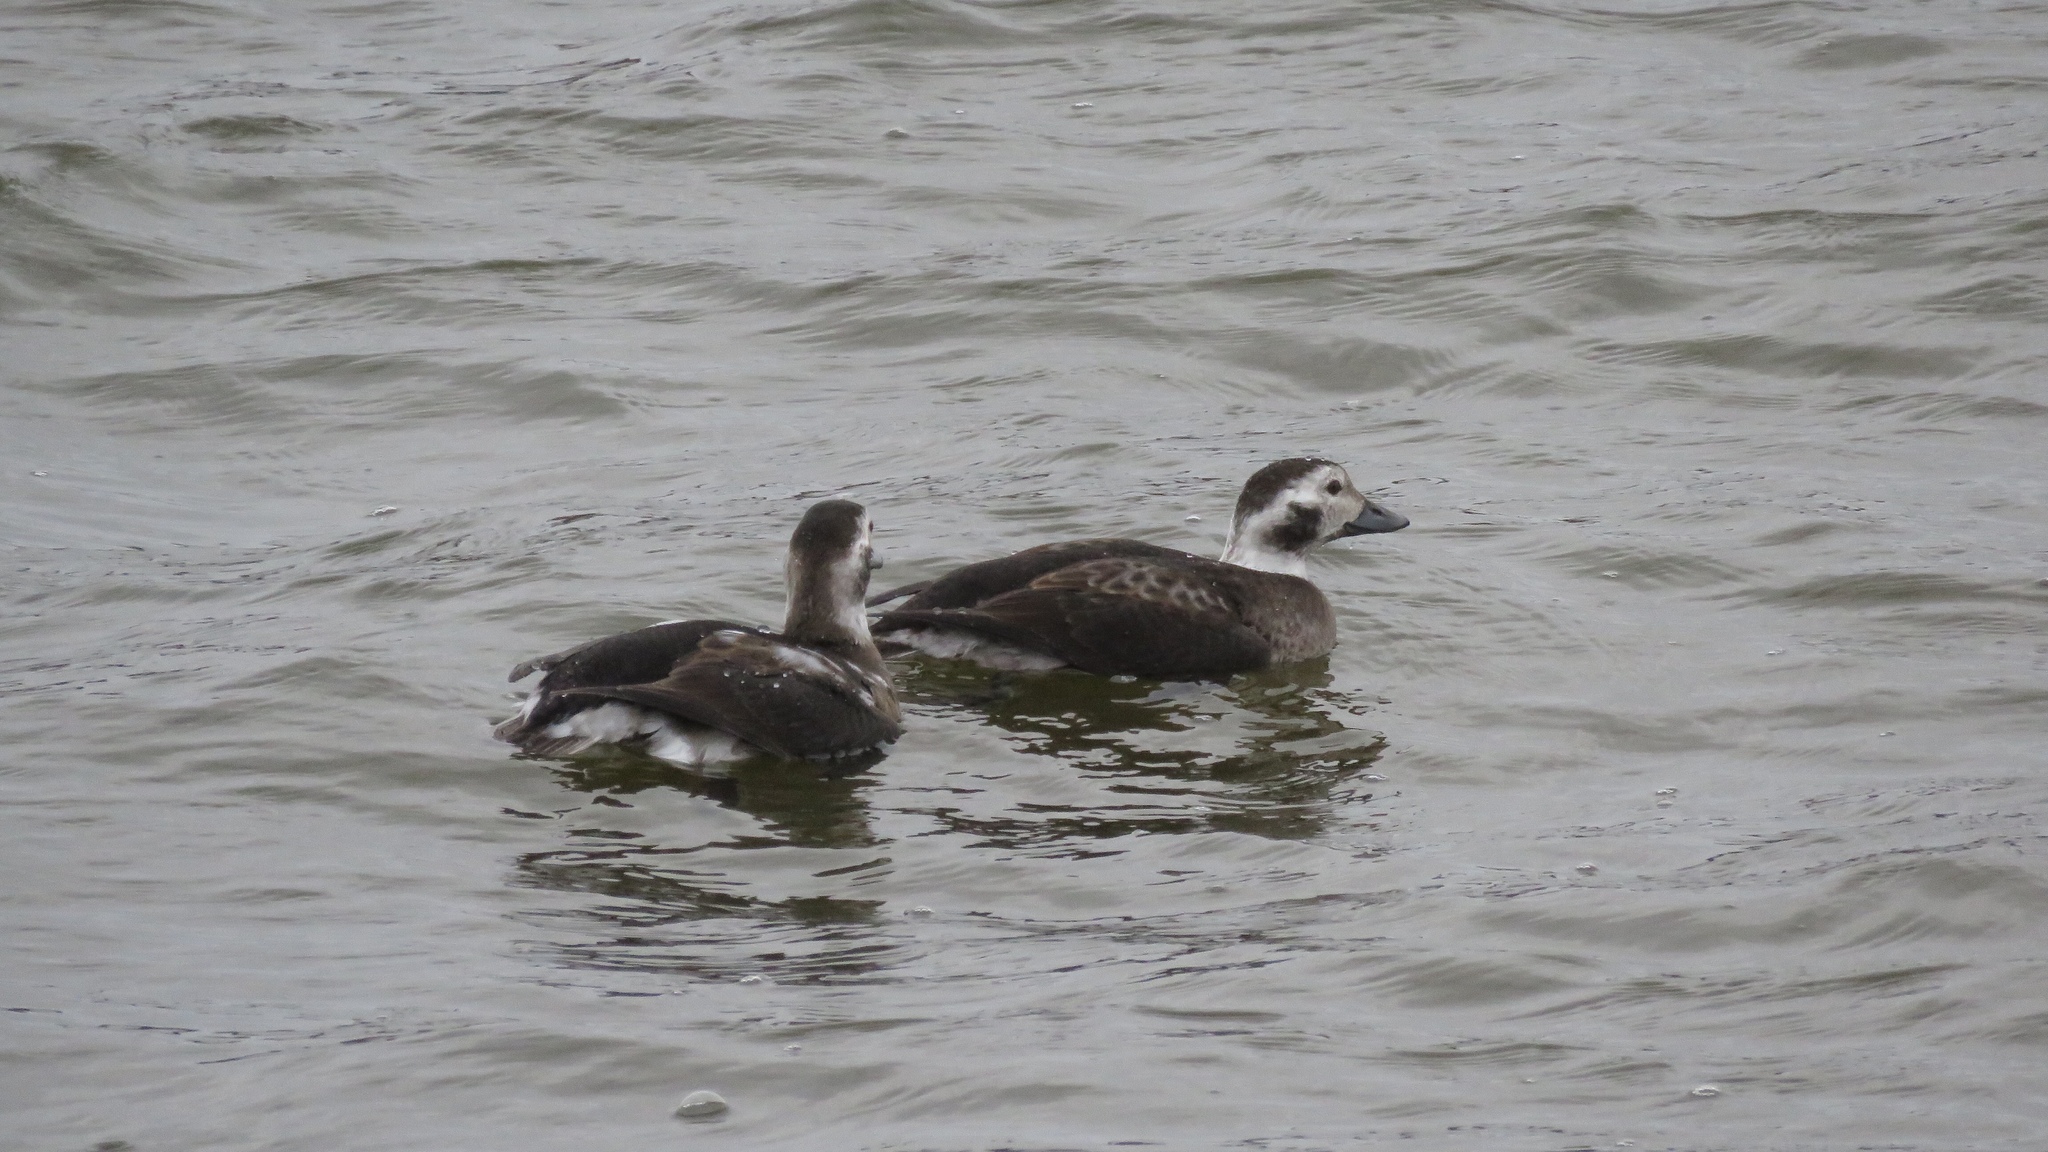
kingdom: Animalia
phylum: Chordata
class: Aves
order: Anseriformes
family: Anatidae
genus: Clangula
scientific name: Clangula hyemalis
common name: Long-tailed duck
